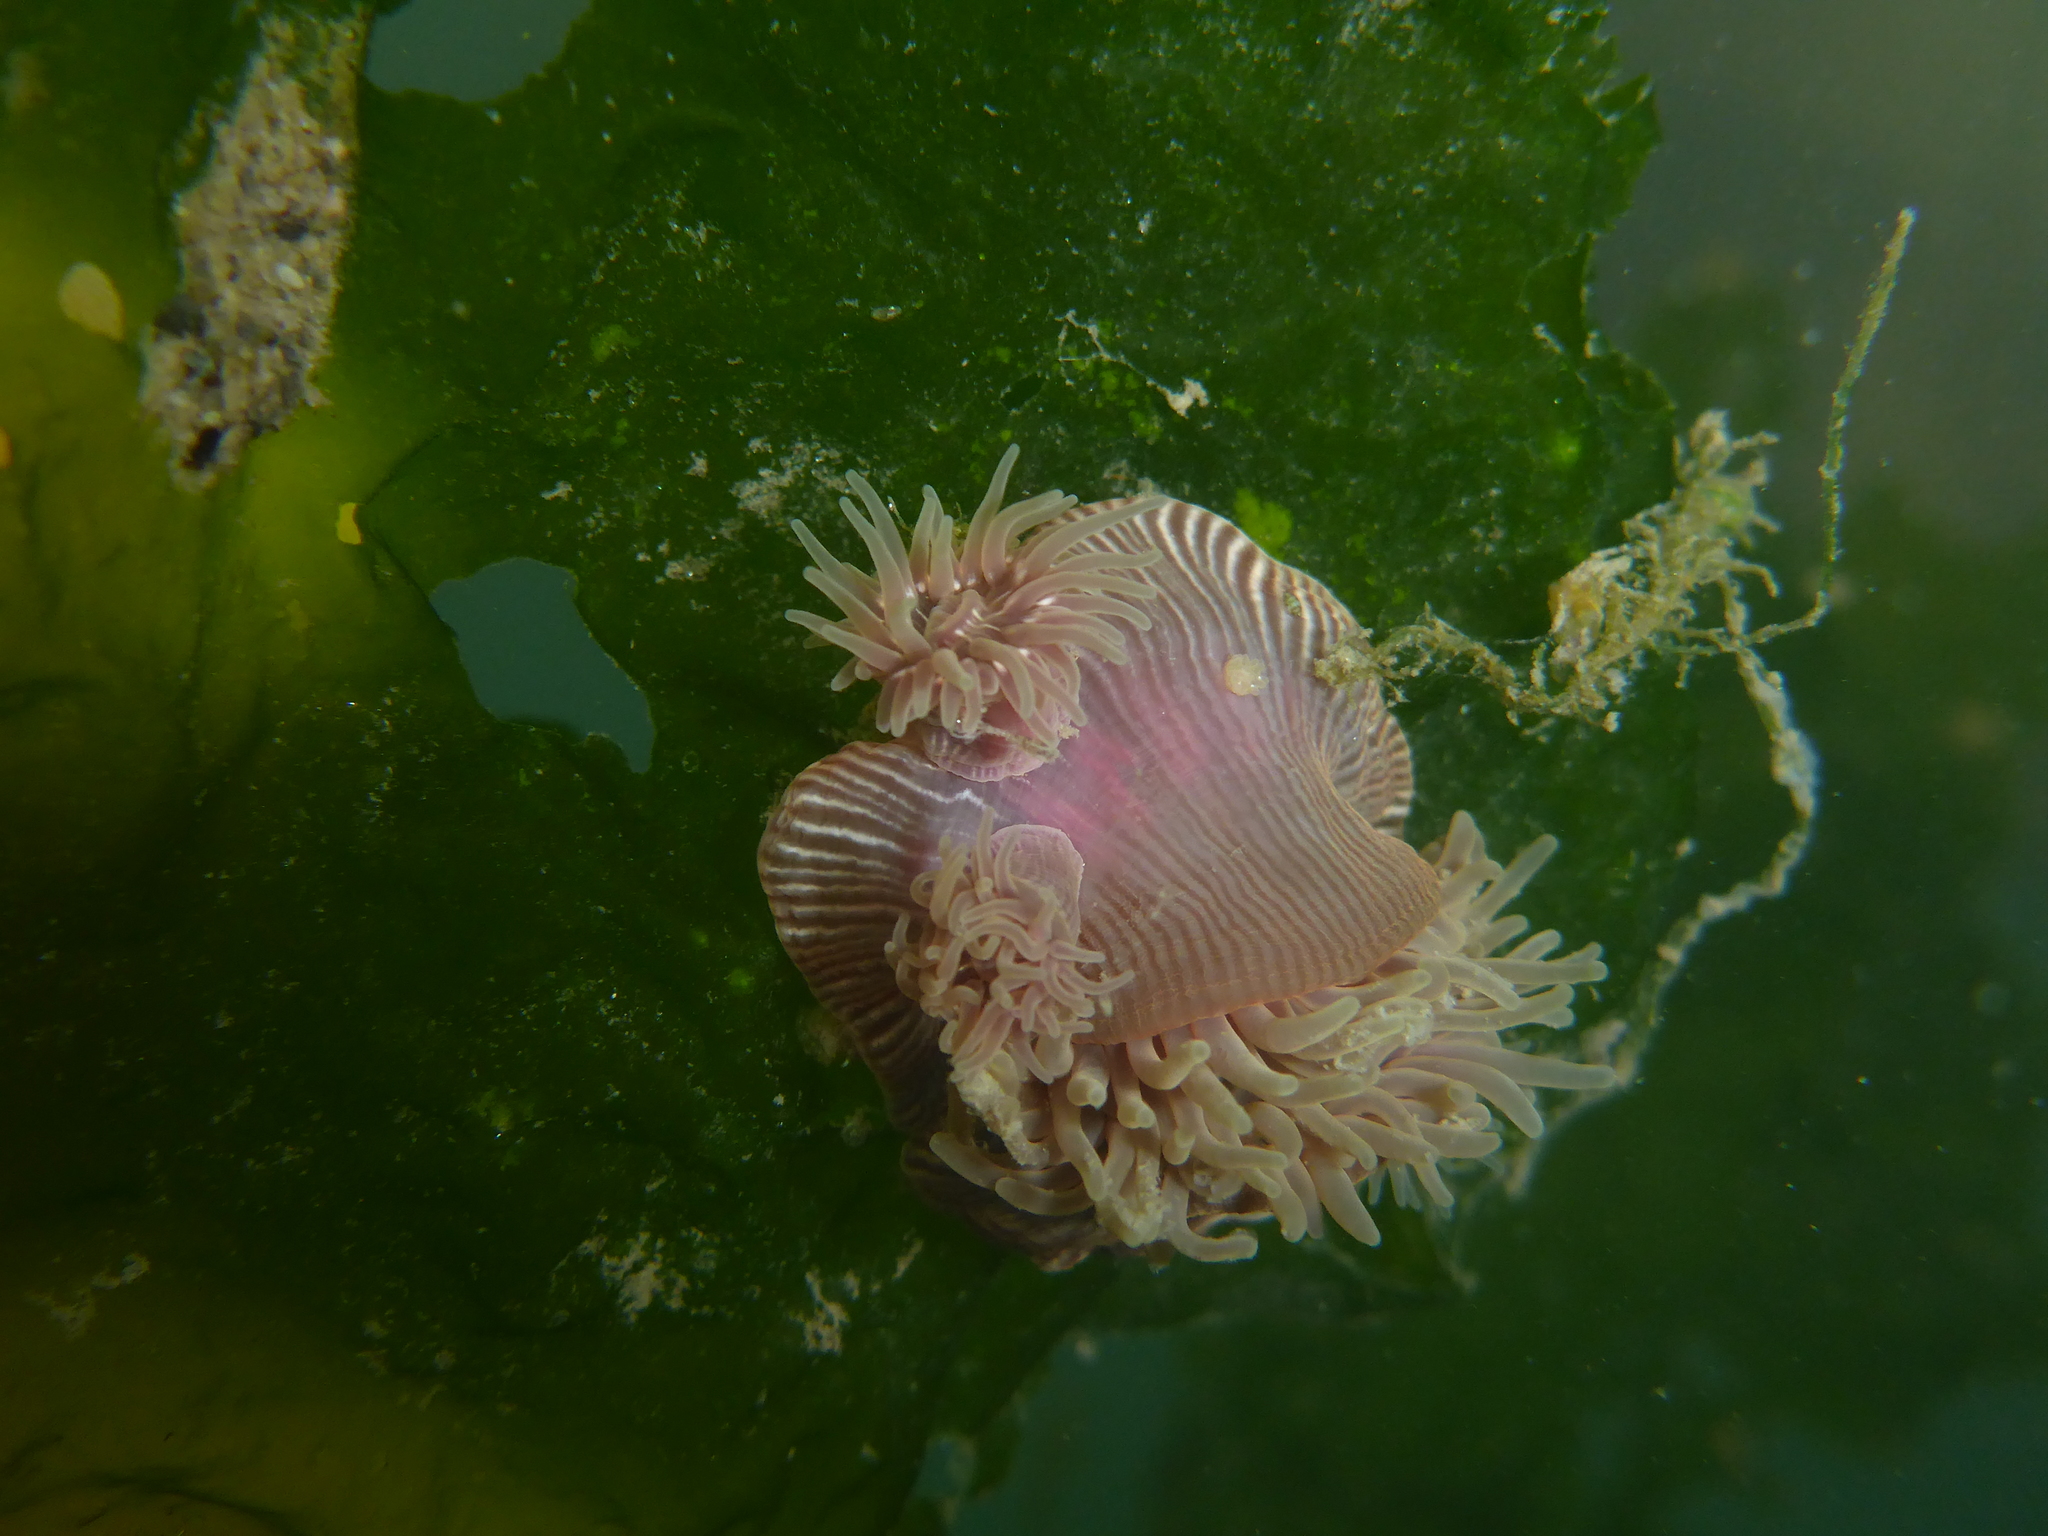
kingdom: Animalia
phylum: Cnidaria
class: Anthozoa
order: Actiniaria
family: Actiniidae
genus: Epiactis
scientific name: Epiactis prolifera
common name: Brooding anemone
